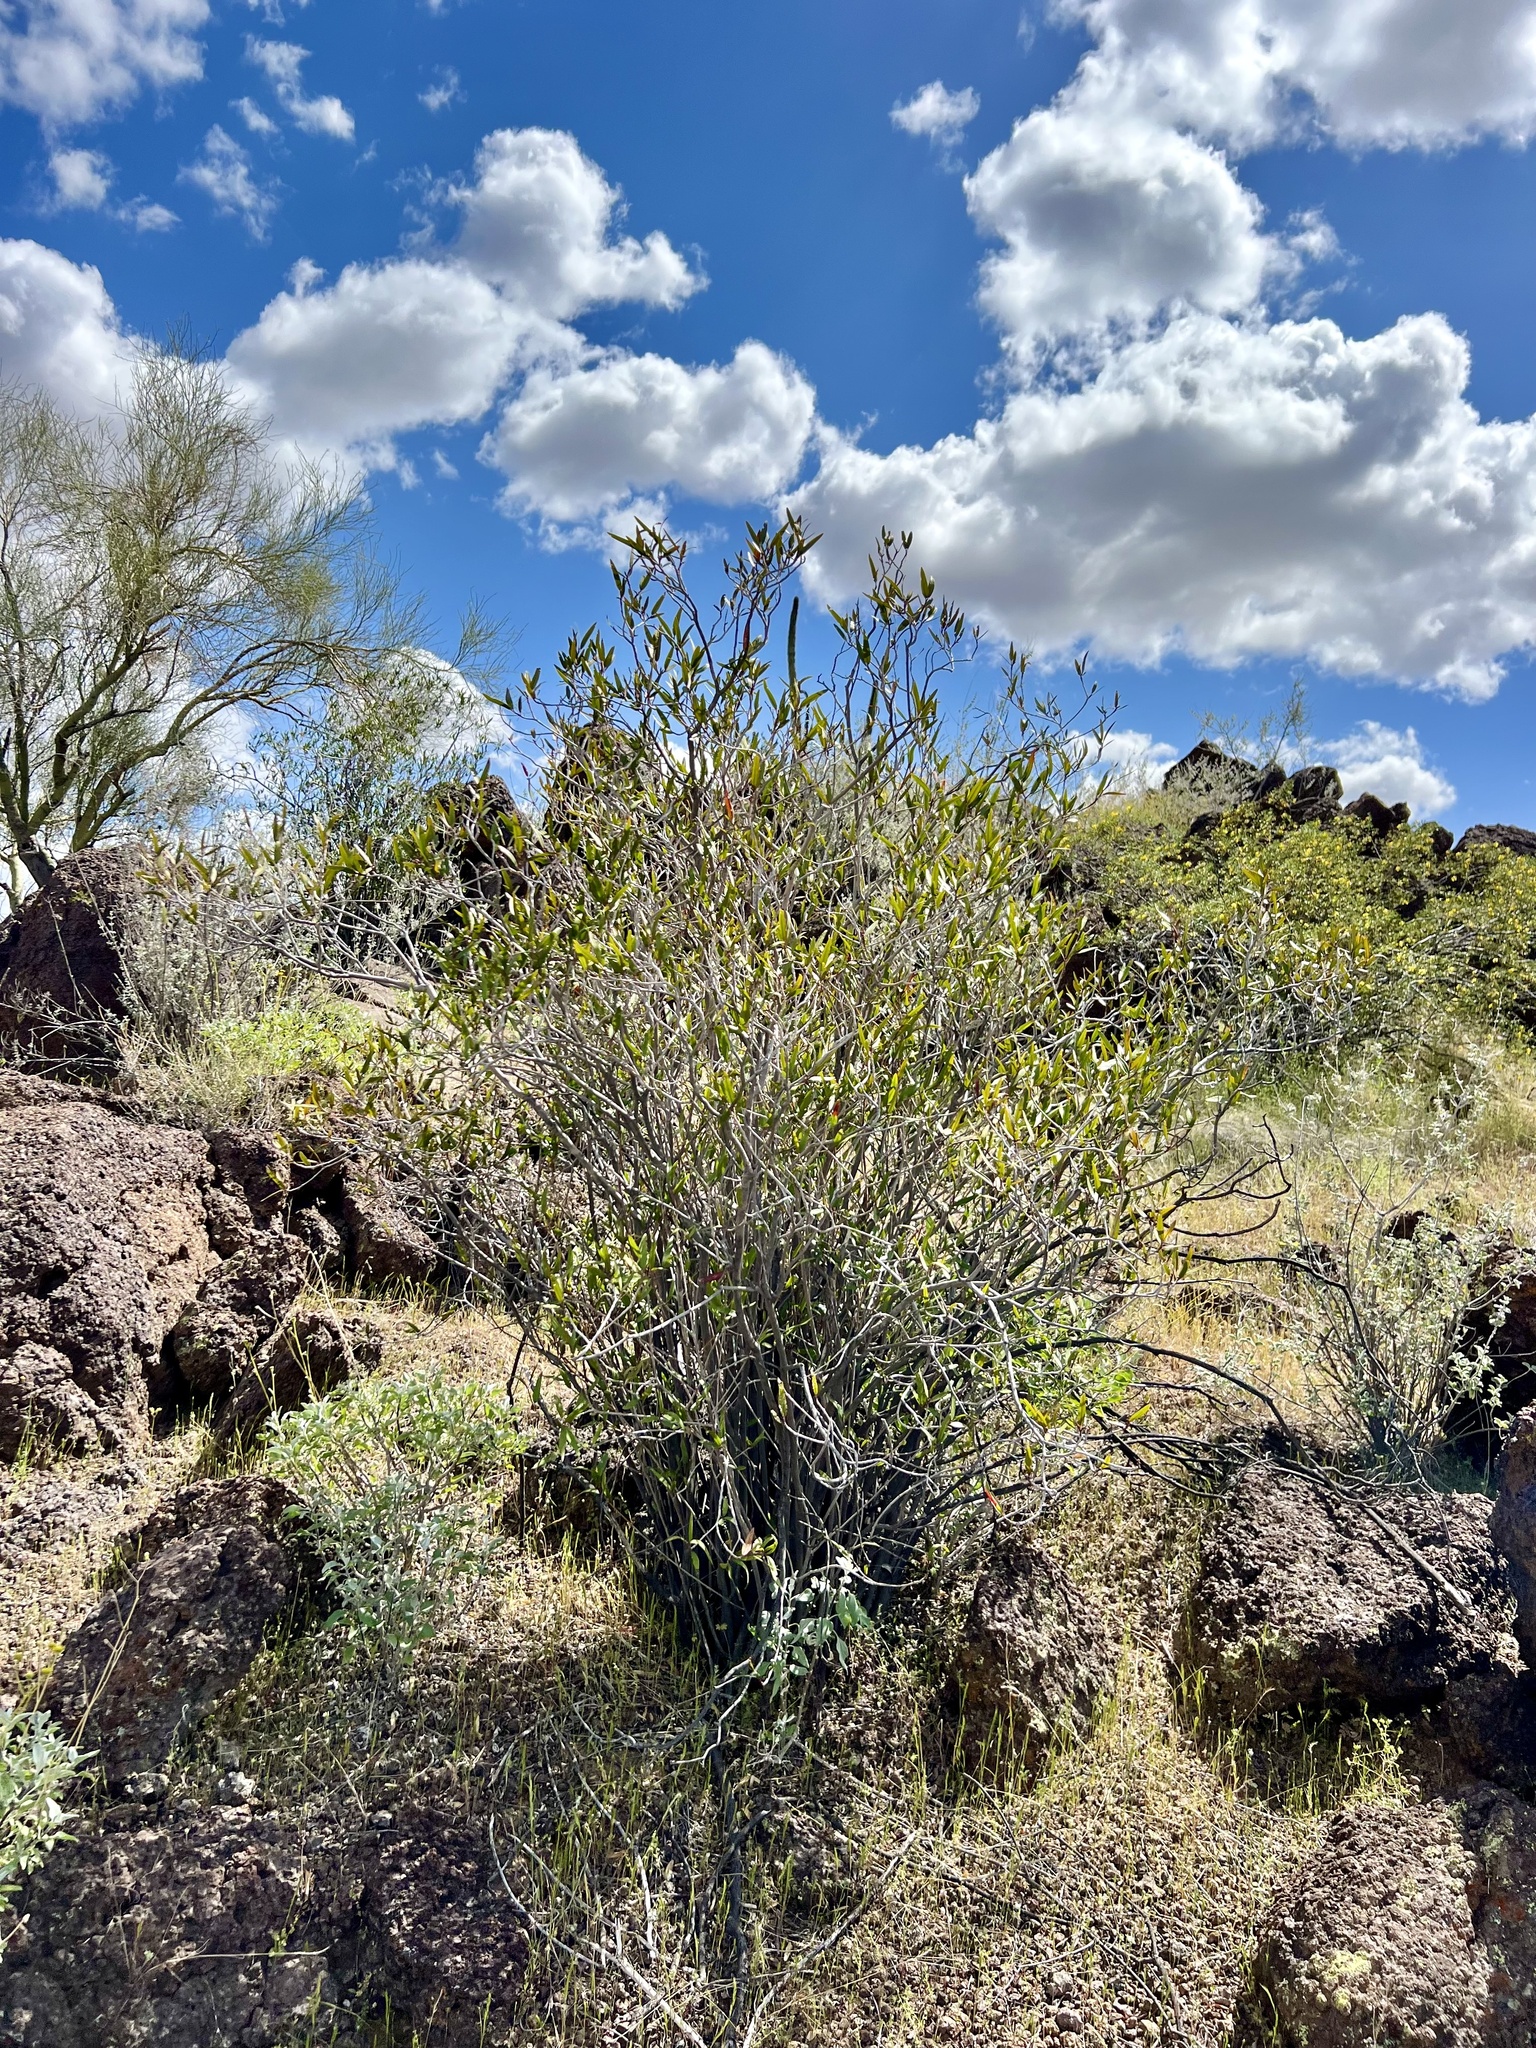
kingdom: Plantae
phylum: Tracheophyta
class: Magnoliopsida
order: Malpighiales
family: Euphorbiaceae
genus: Pleradenophora
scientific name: Pleradenophora bilocularis
